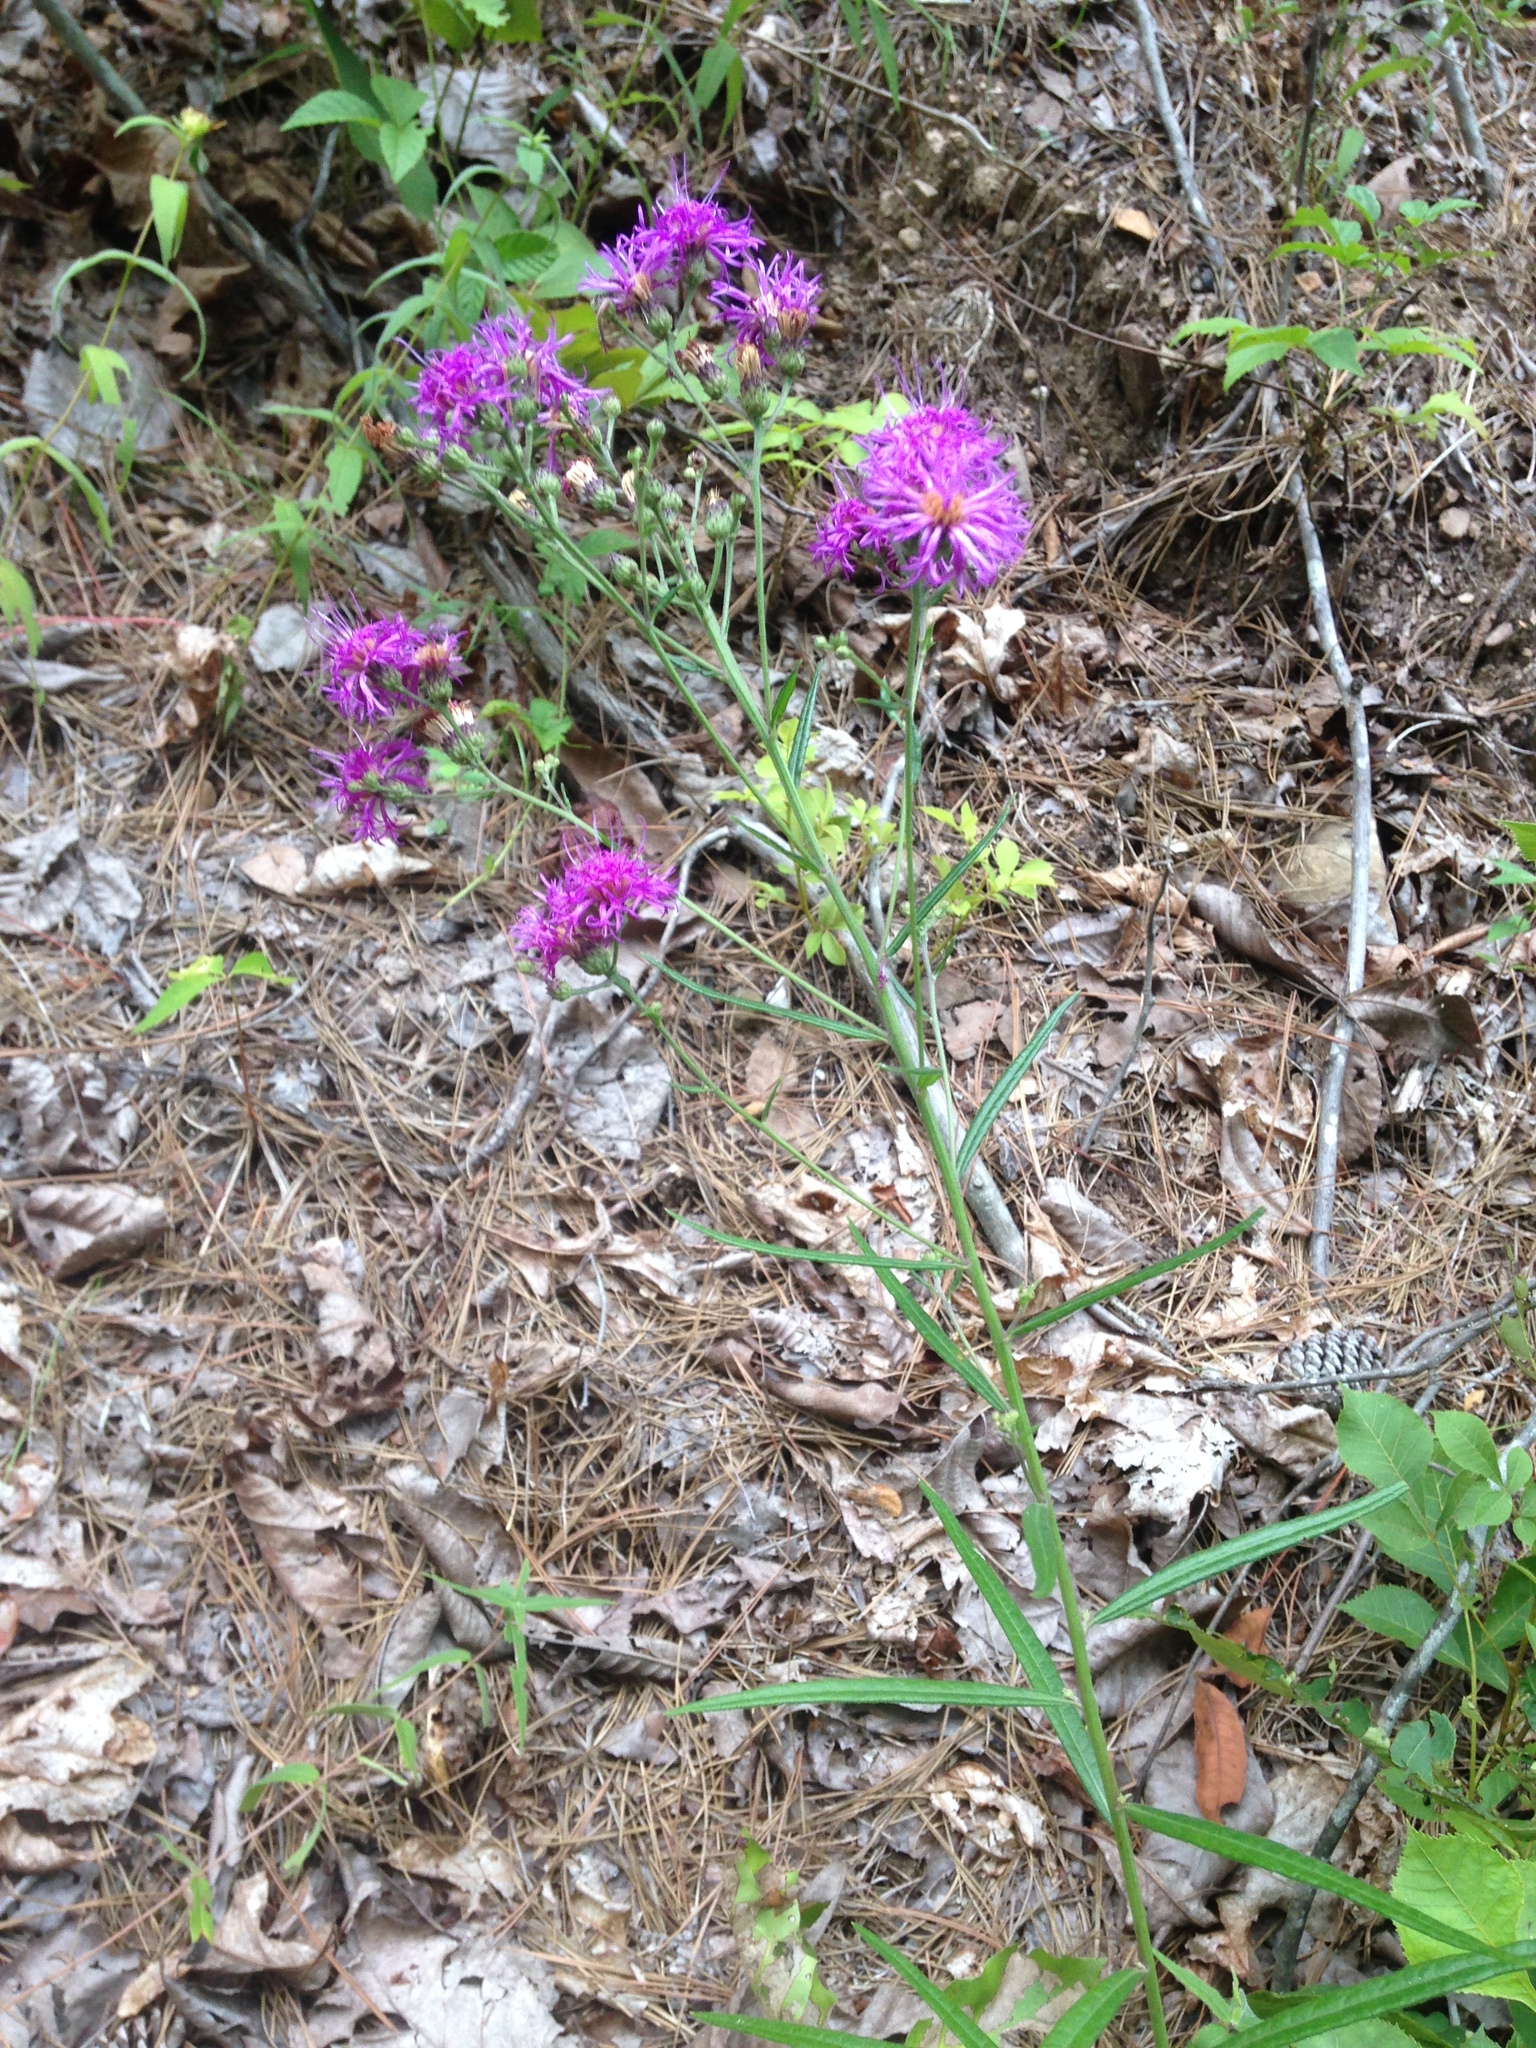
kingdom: Plantae
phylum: Tracheophyta
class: Magnoliopsida
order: Asterales
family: Asteraceae
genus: Vernonia
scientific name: Vernonia texana
